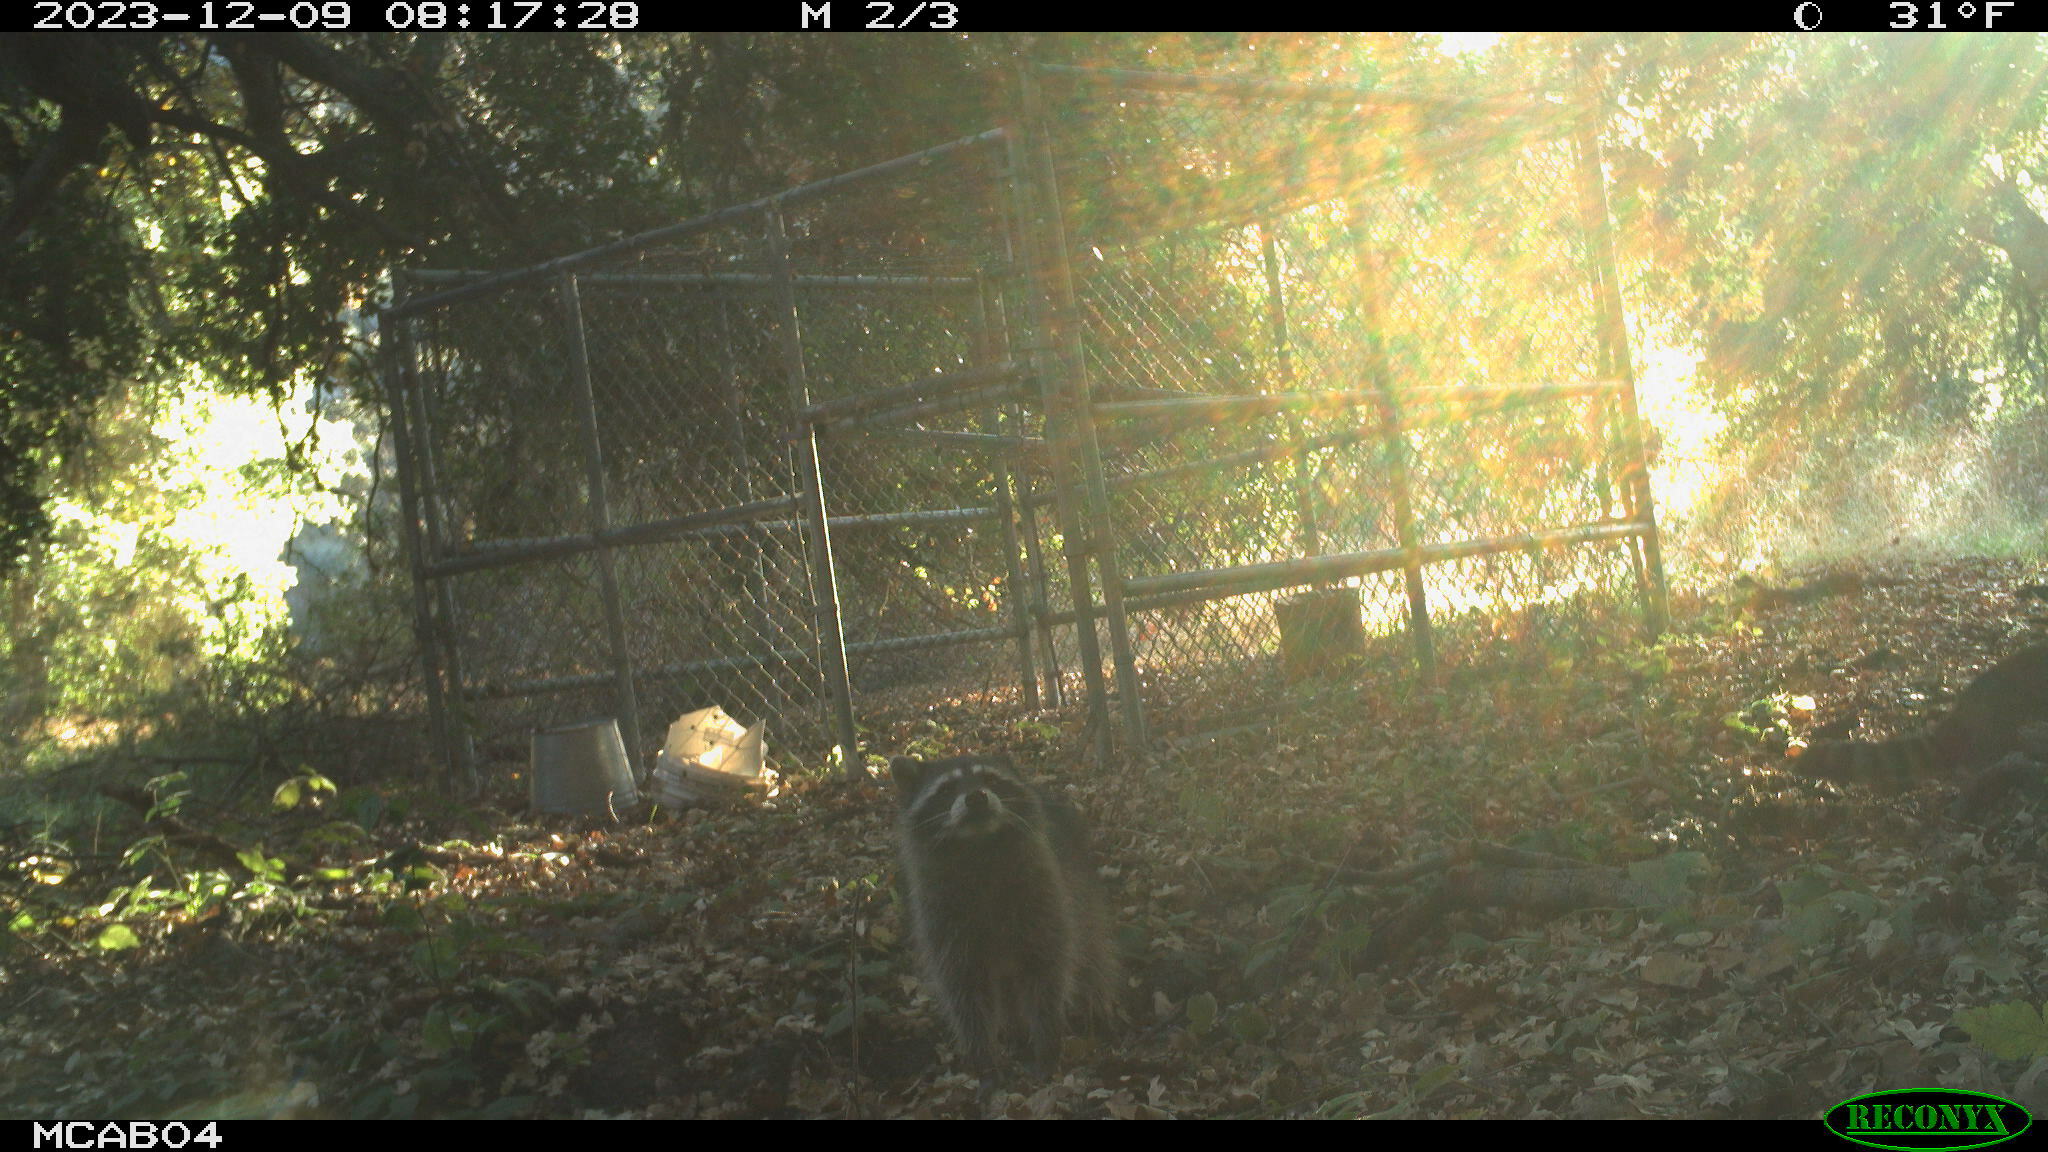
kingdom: Animalia
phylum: Chordata
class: Mammalia
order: Carnivora
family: Procyonidae
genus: Procyon
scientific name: Procyon lotor
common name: Raccoon
